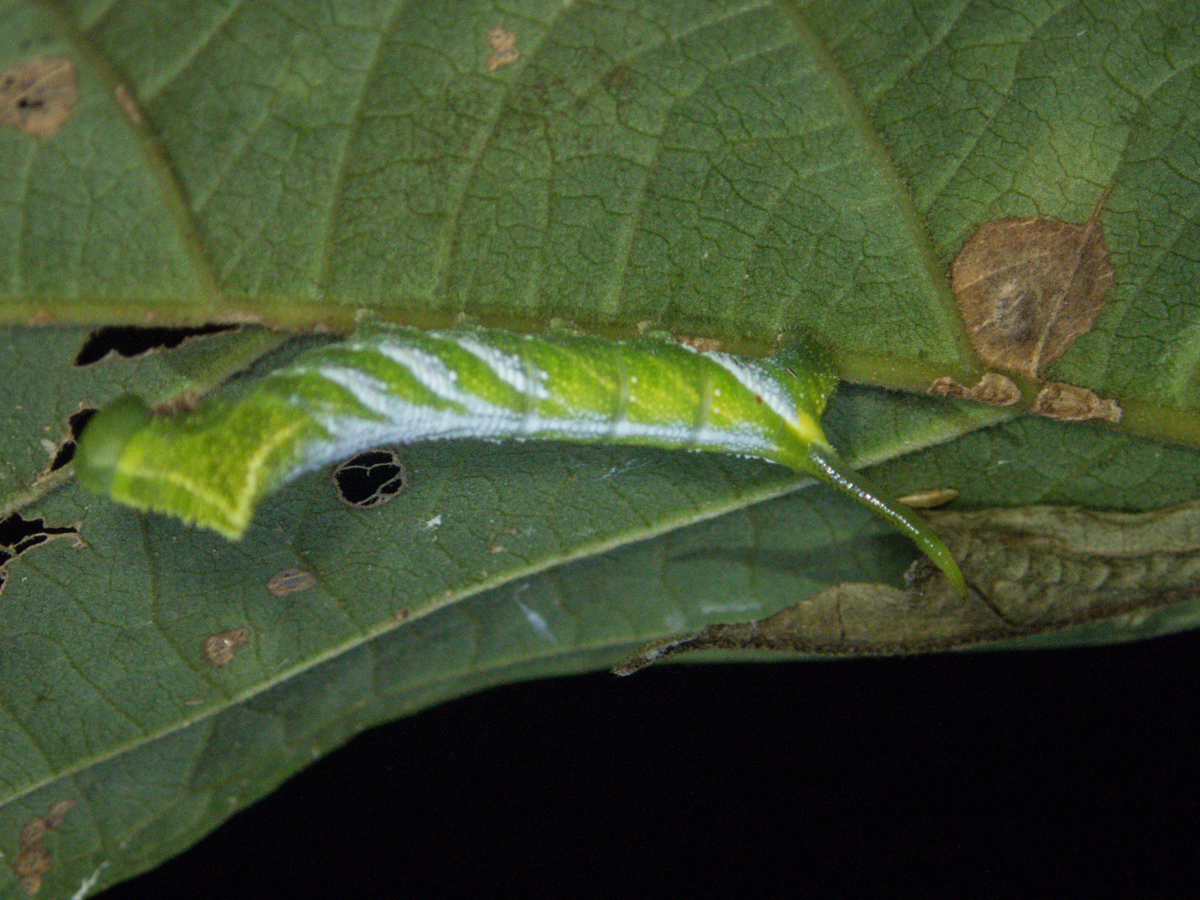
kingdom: Animalia
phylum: Arthropoda
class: Insecta
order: Lepidoptera
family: Sphingidae
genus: Meganoton
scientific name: Meganoton nyctiphanes
